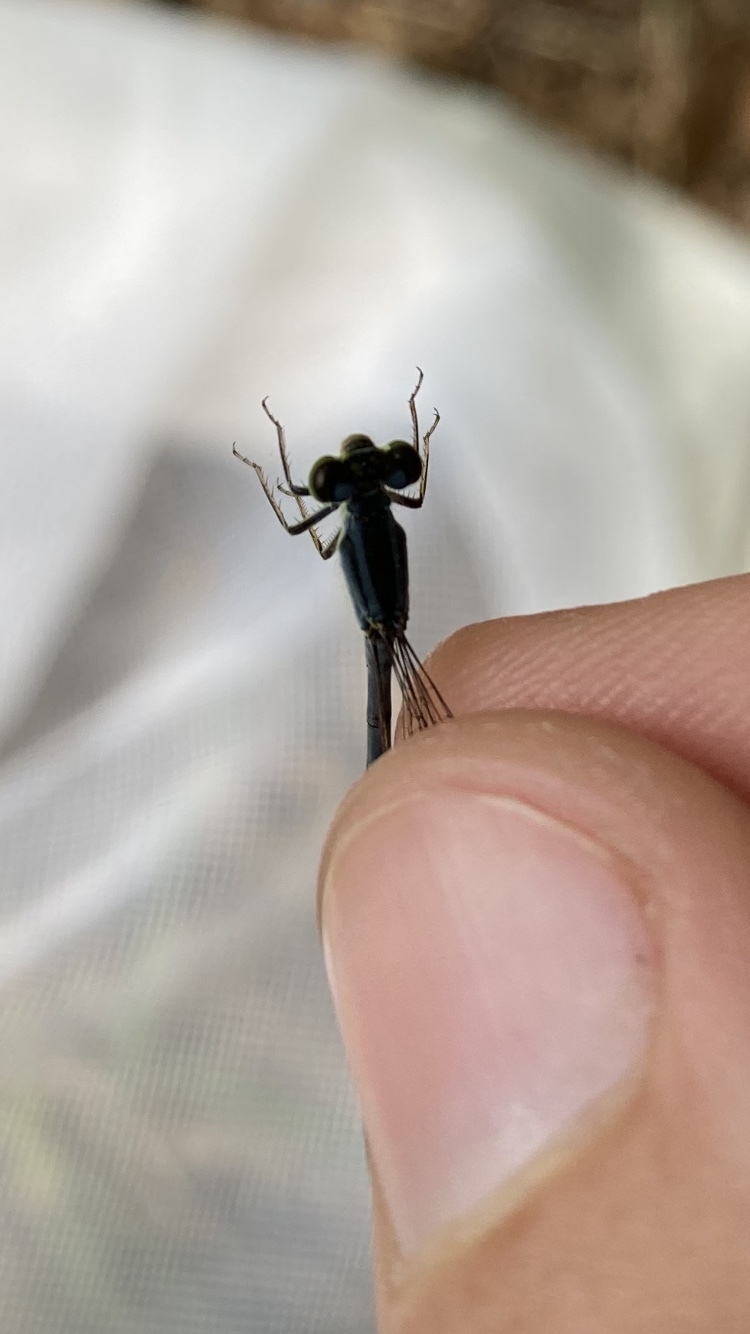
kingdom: Animalia
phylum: Arthropoda
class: Insecta
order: Odonata
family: Coenagrionidae
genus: Ischnura
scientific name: Ischnura verticalis
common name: Eastern forktail
